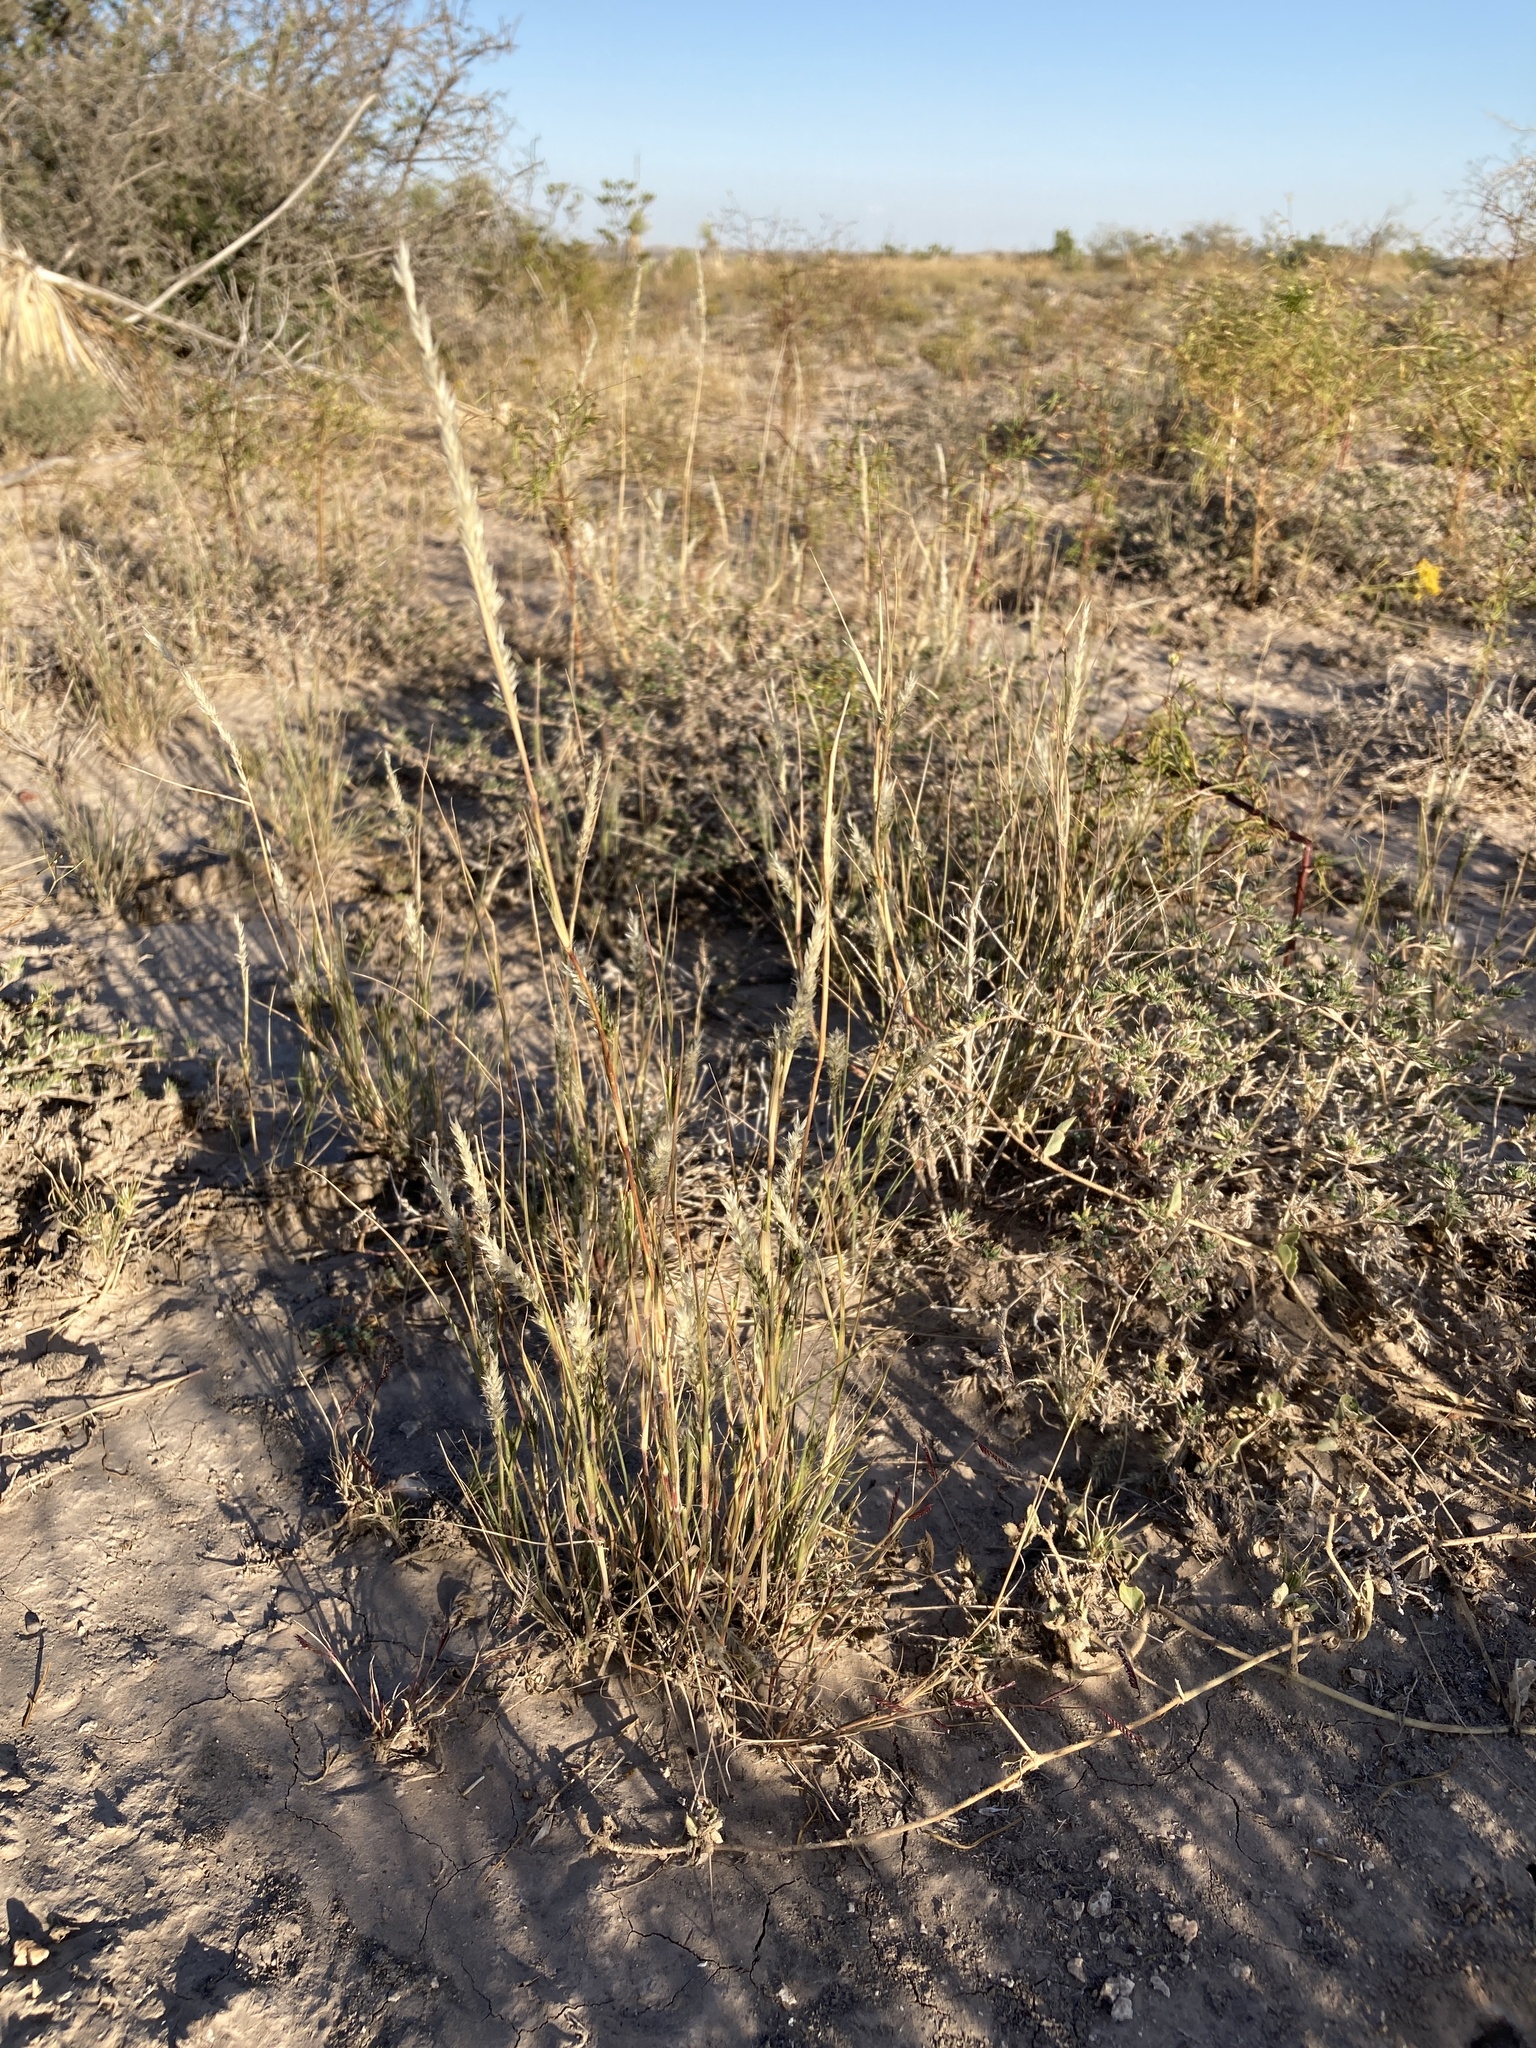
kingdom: Plantae
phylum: Tracheophyta
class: Liliopsida
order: Poales
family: Poaceae
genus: Enneapogon
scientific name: Enneapogon desvauxii
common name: Feather pappus grass
